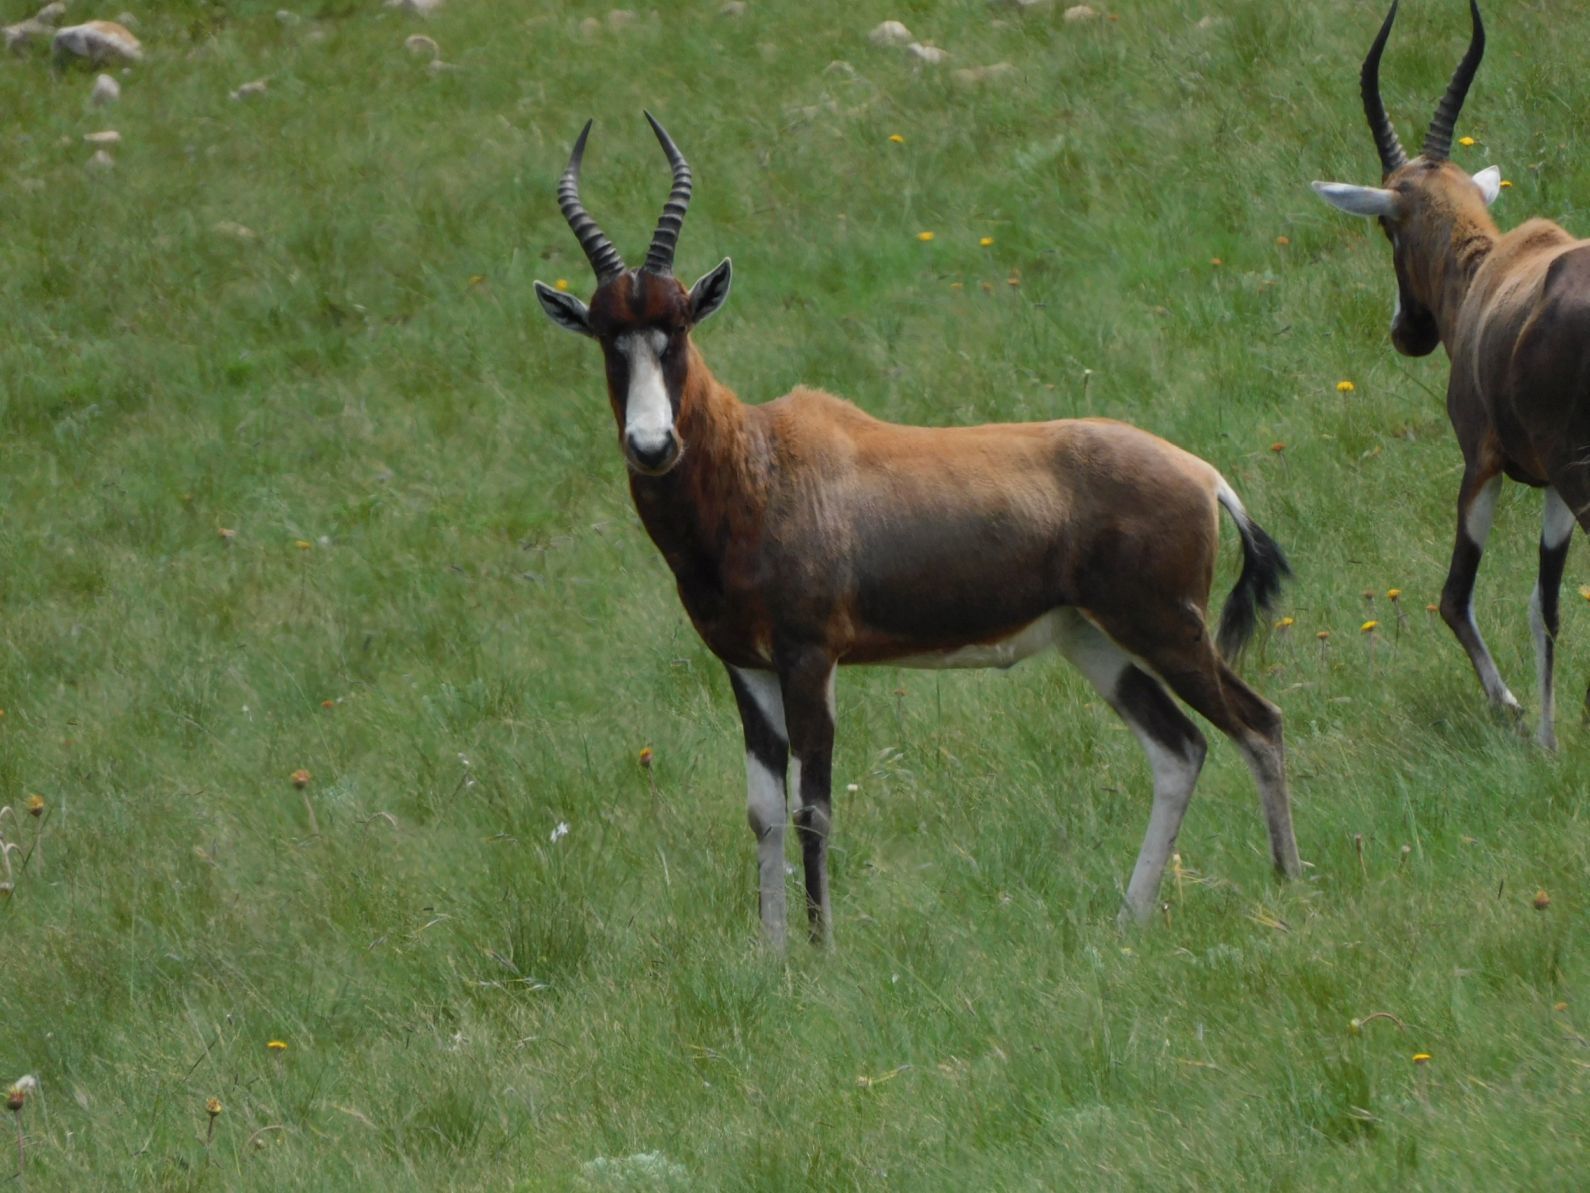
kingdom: Animalia
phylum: Chordata
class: Mammalia
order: Artiodactyla
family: Bovidae
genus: Damaliscus
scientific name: Damaliscus pygargus
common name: Bontebok
